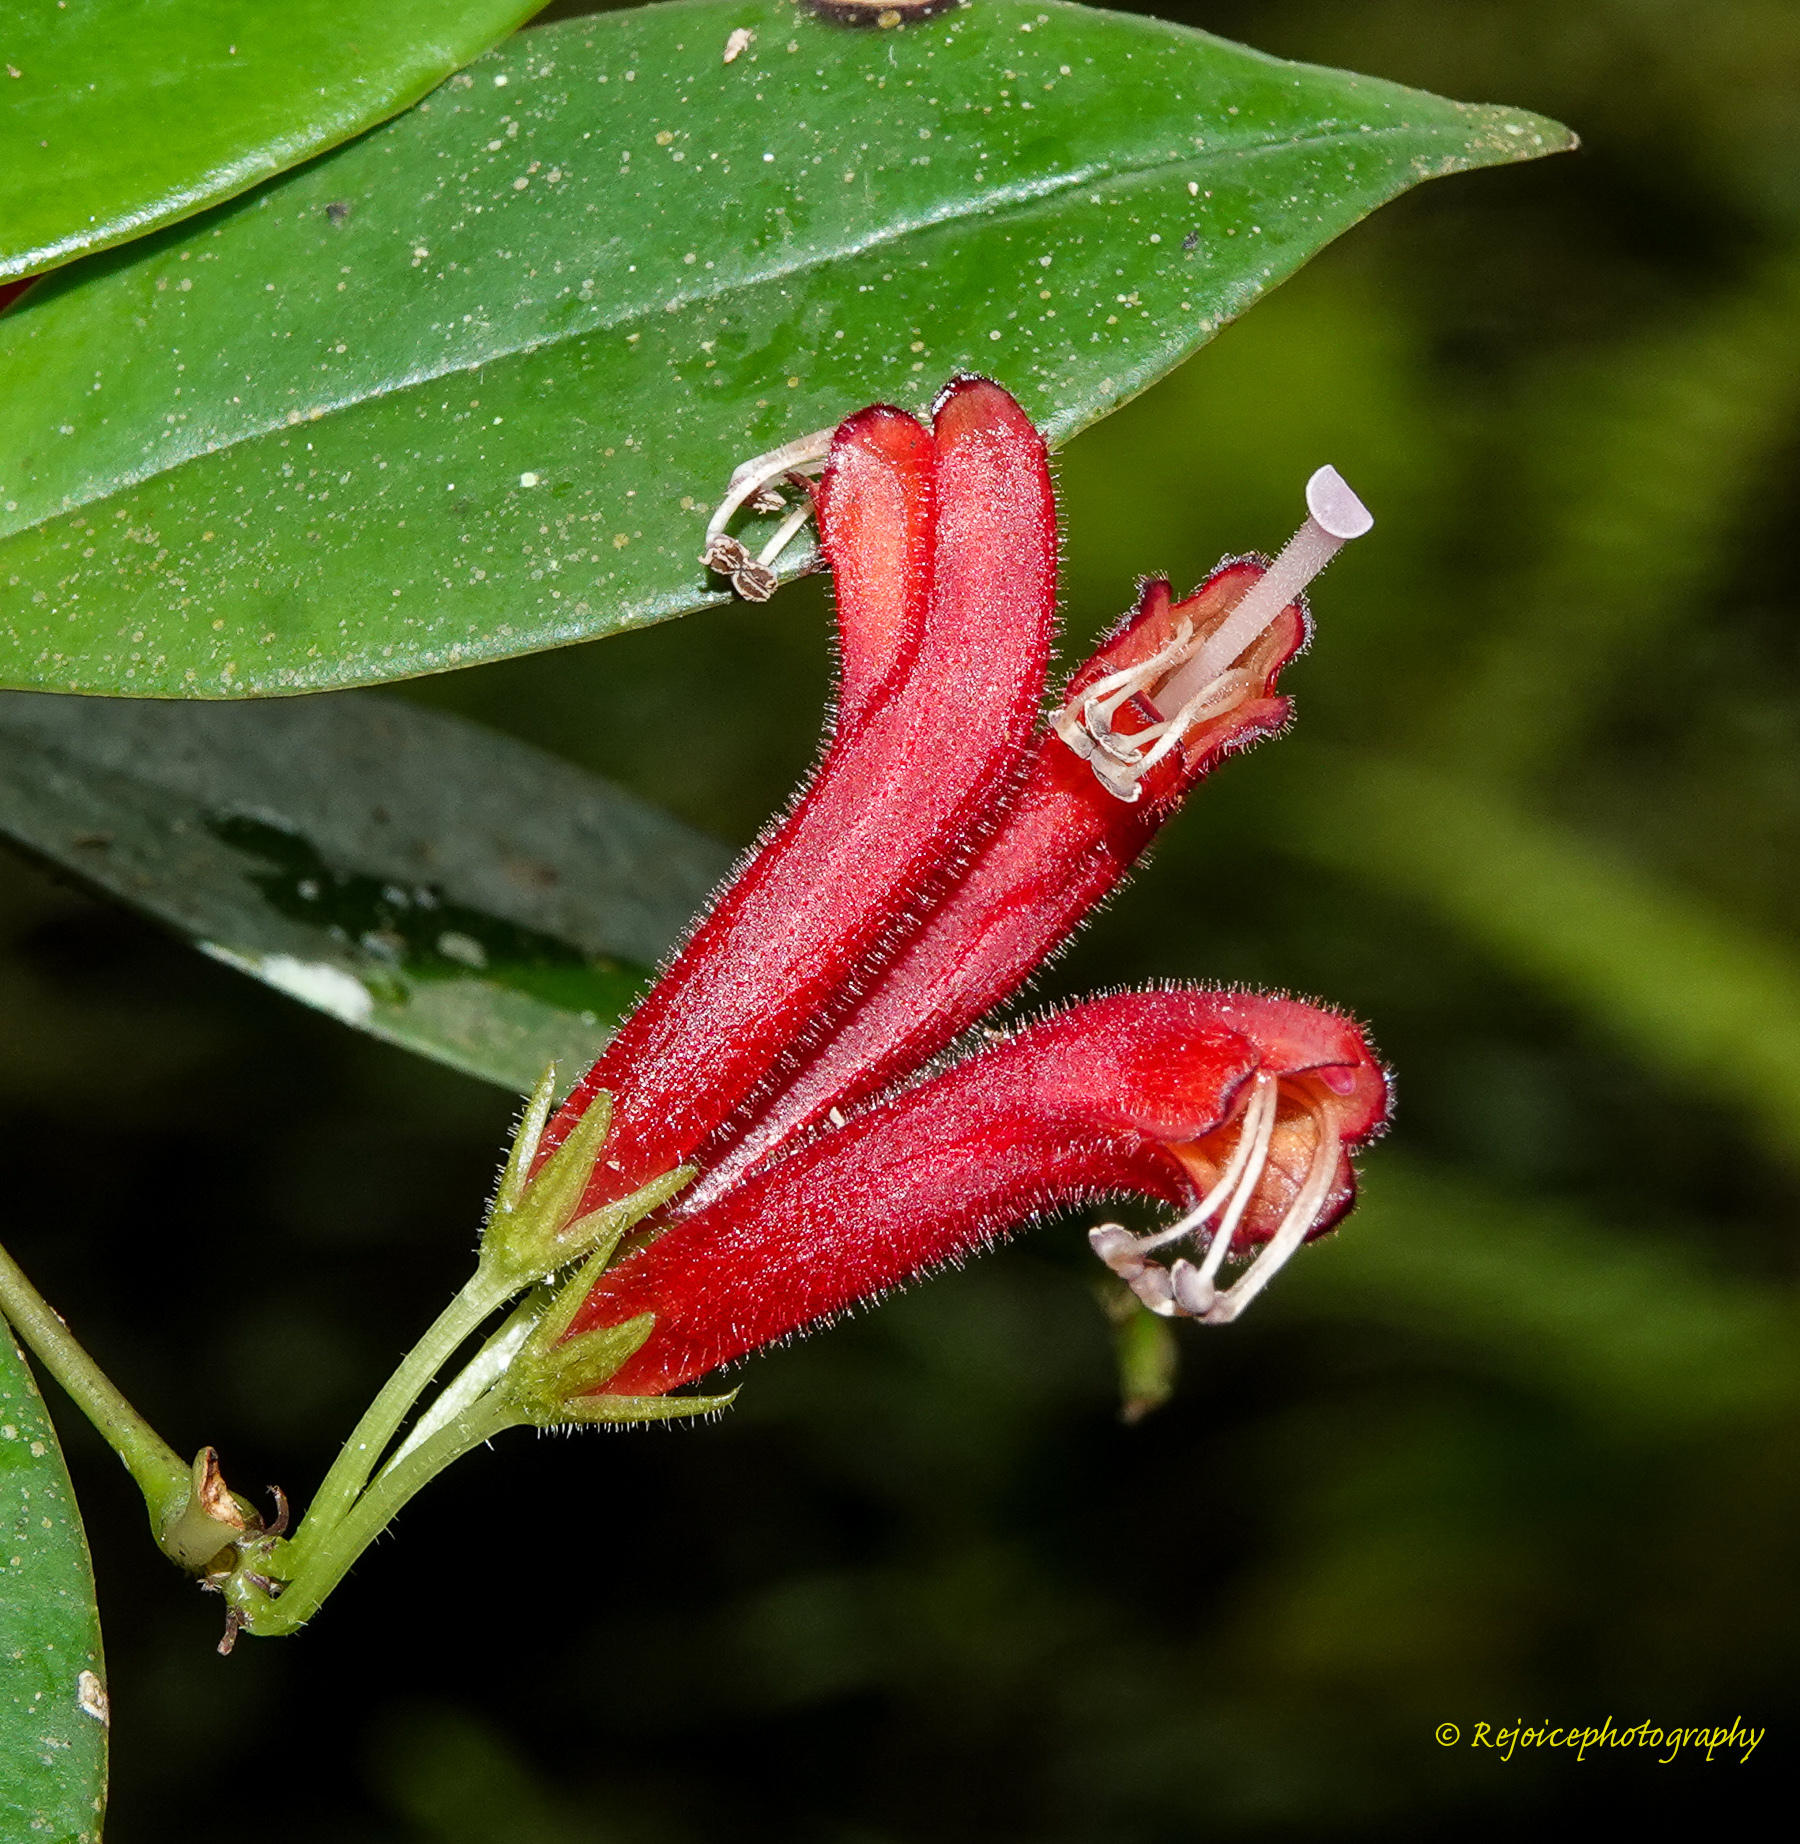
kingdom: Plantae
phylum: Tracheophyta
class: Magnoliopsida
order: Lamiales
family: Gesneriaceae
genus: Aeschynanthus
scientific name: Aeschynanthus micranthus
